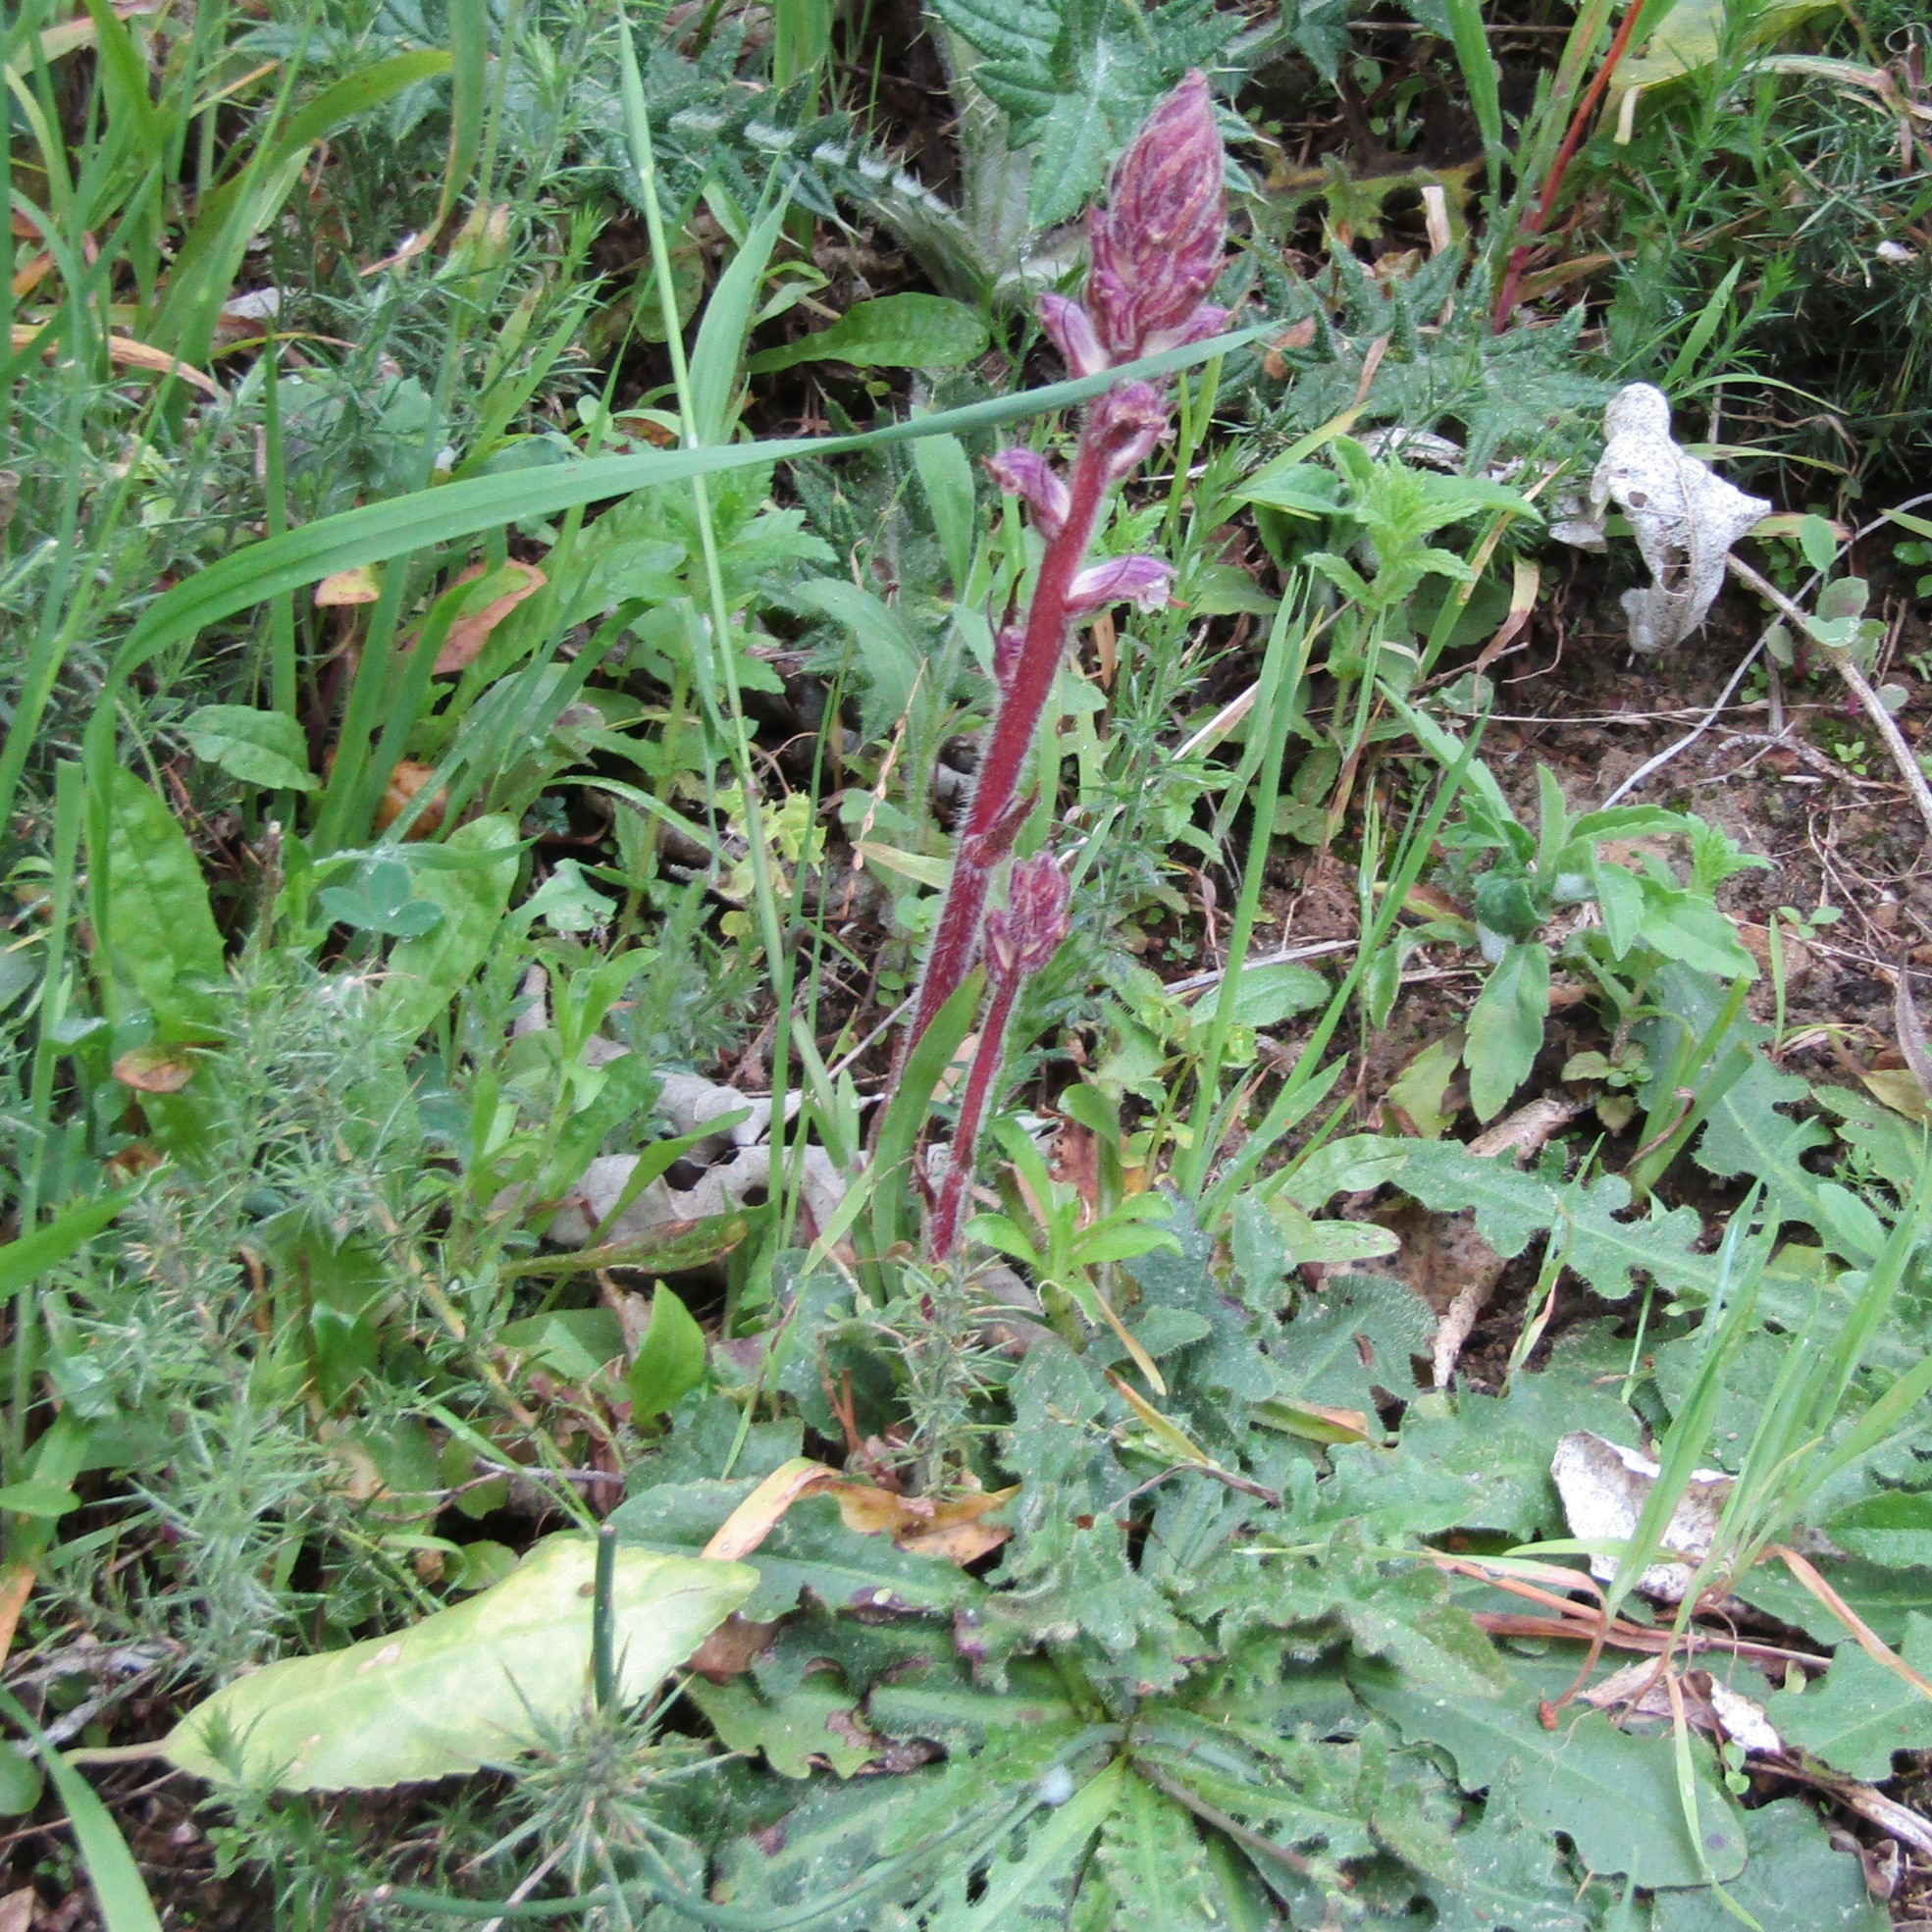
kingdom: Plantae
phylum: Tracheophyta
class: Magnoliopsida
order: Lamiales
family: Orobanchaceae
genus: Orobanche
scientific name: Orobanche minor
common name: Common broomrape
